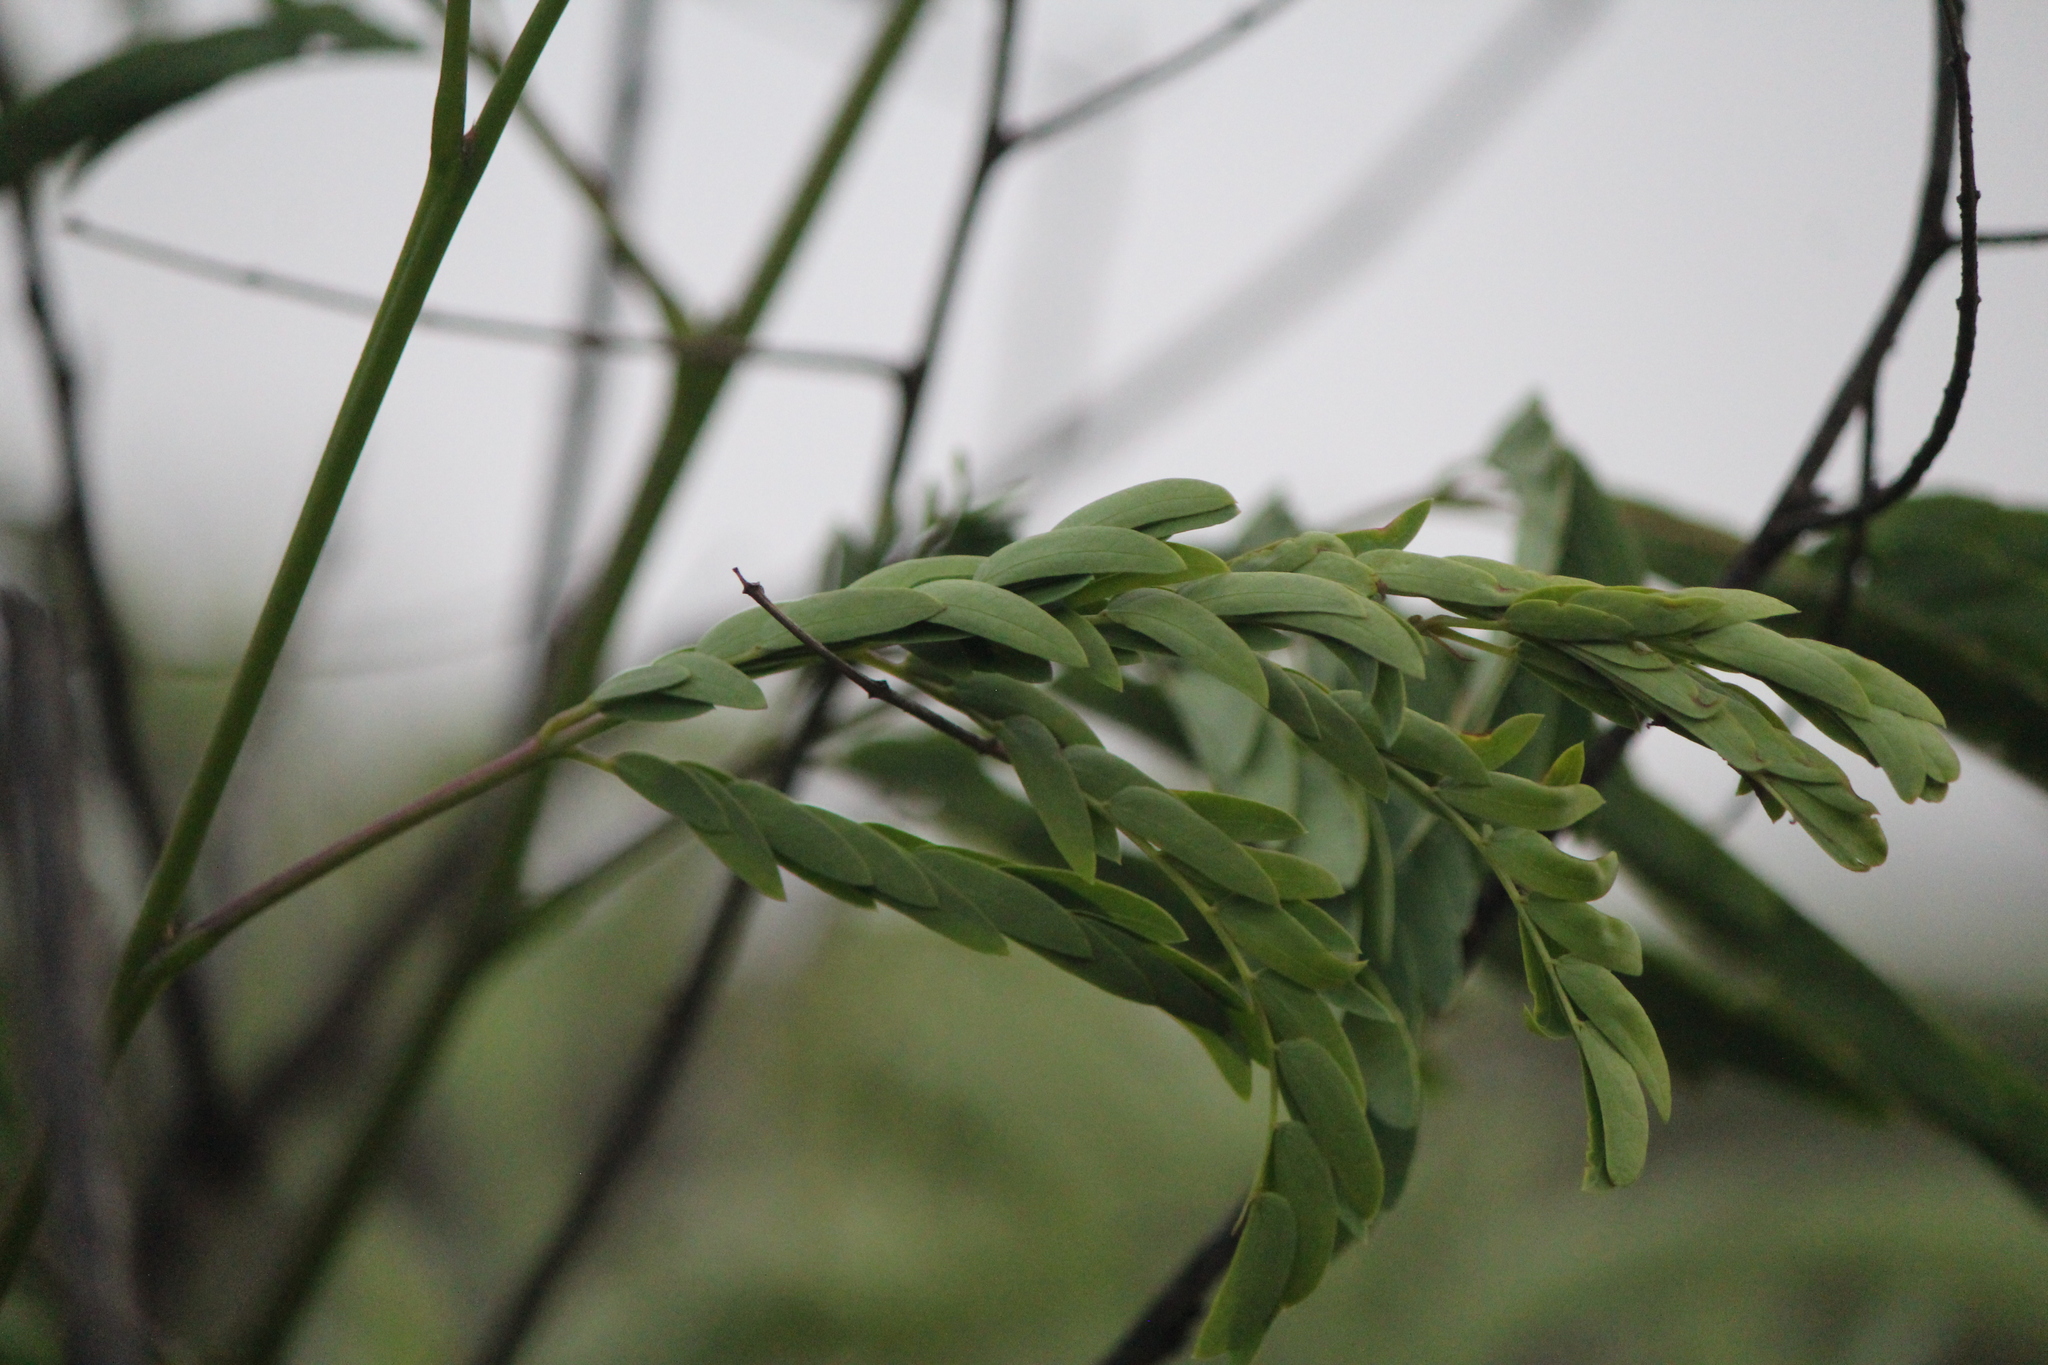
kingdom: Plantae
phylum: Tracheophyta
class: Magnoliopsida
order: Fabales
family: Fabaceae
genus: Leucaena
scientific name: Leucaena leucocephala
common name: White leadtree
